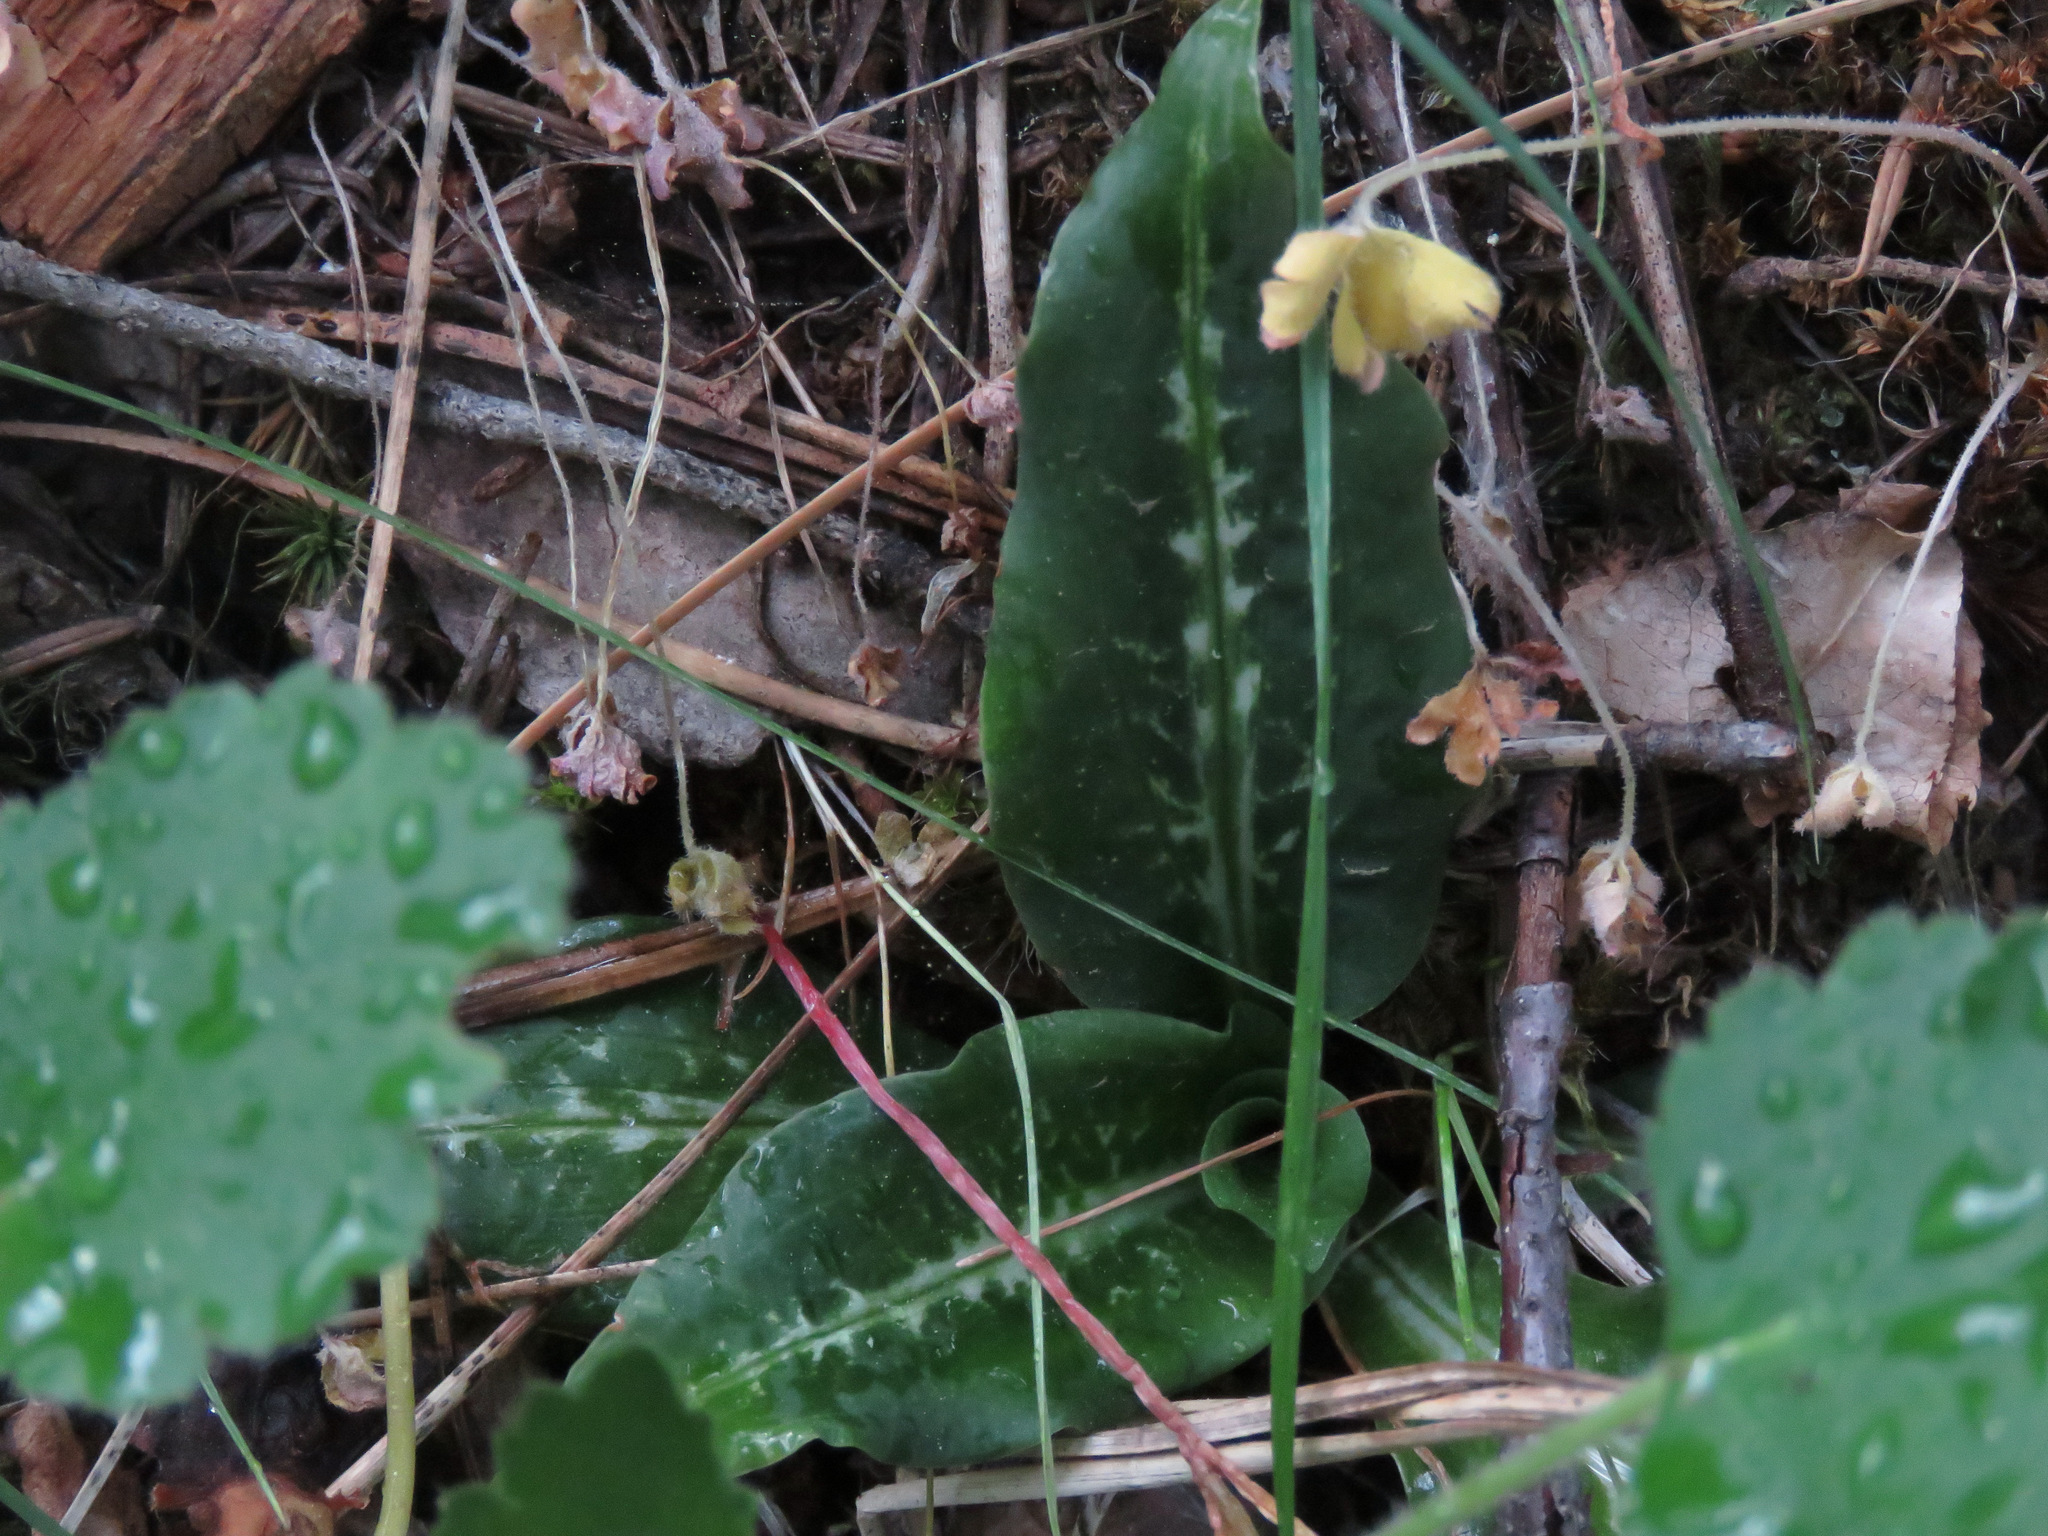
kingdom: Plantae
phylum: Tracheophyta
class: Liliopsida
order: Asparagales
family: Orchidaceae
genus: Goodyera
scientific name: Goodyera oblongifolia
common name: Giant rattlesnake-plantain
